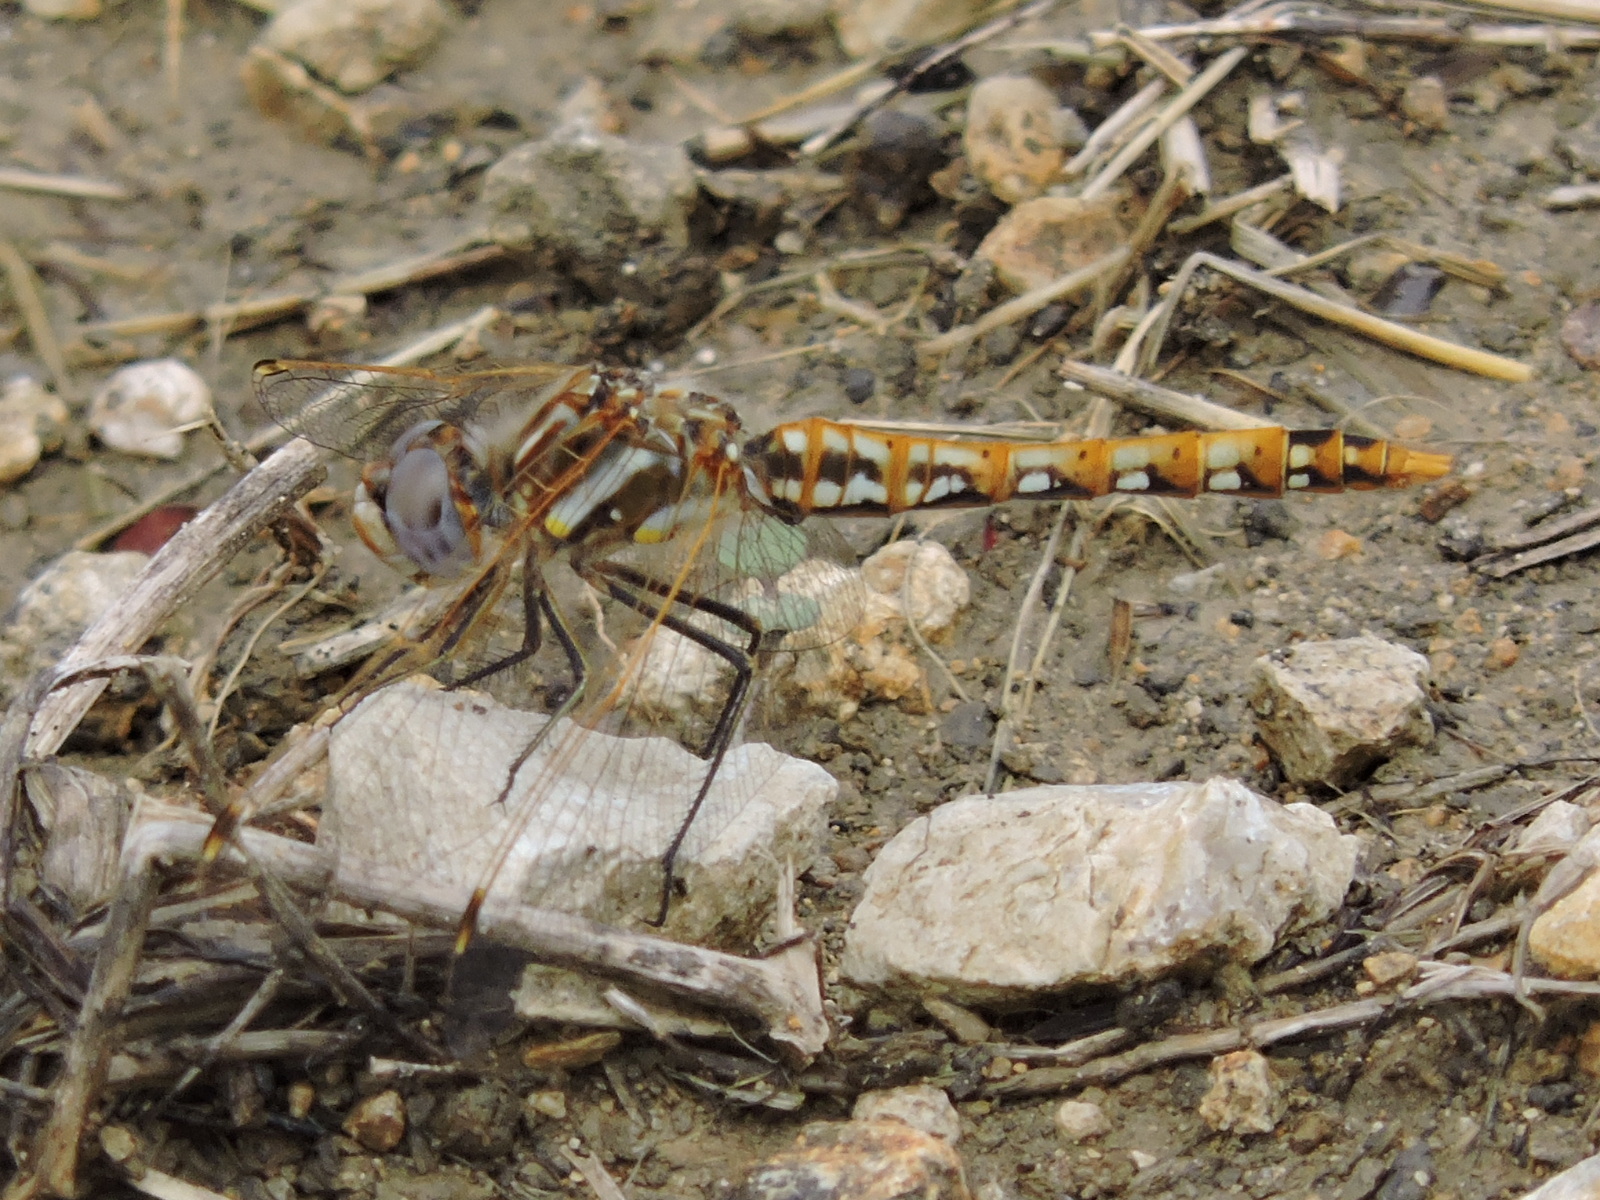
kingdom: Animalia
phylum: Arthropoda
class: Insecta
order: Odonata
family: Libellulidae
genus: Sympetrum
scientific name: Sympetrum corruptum
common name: Variegated meadowhawk
